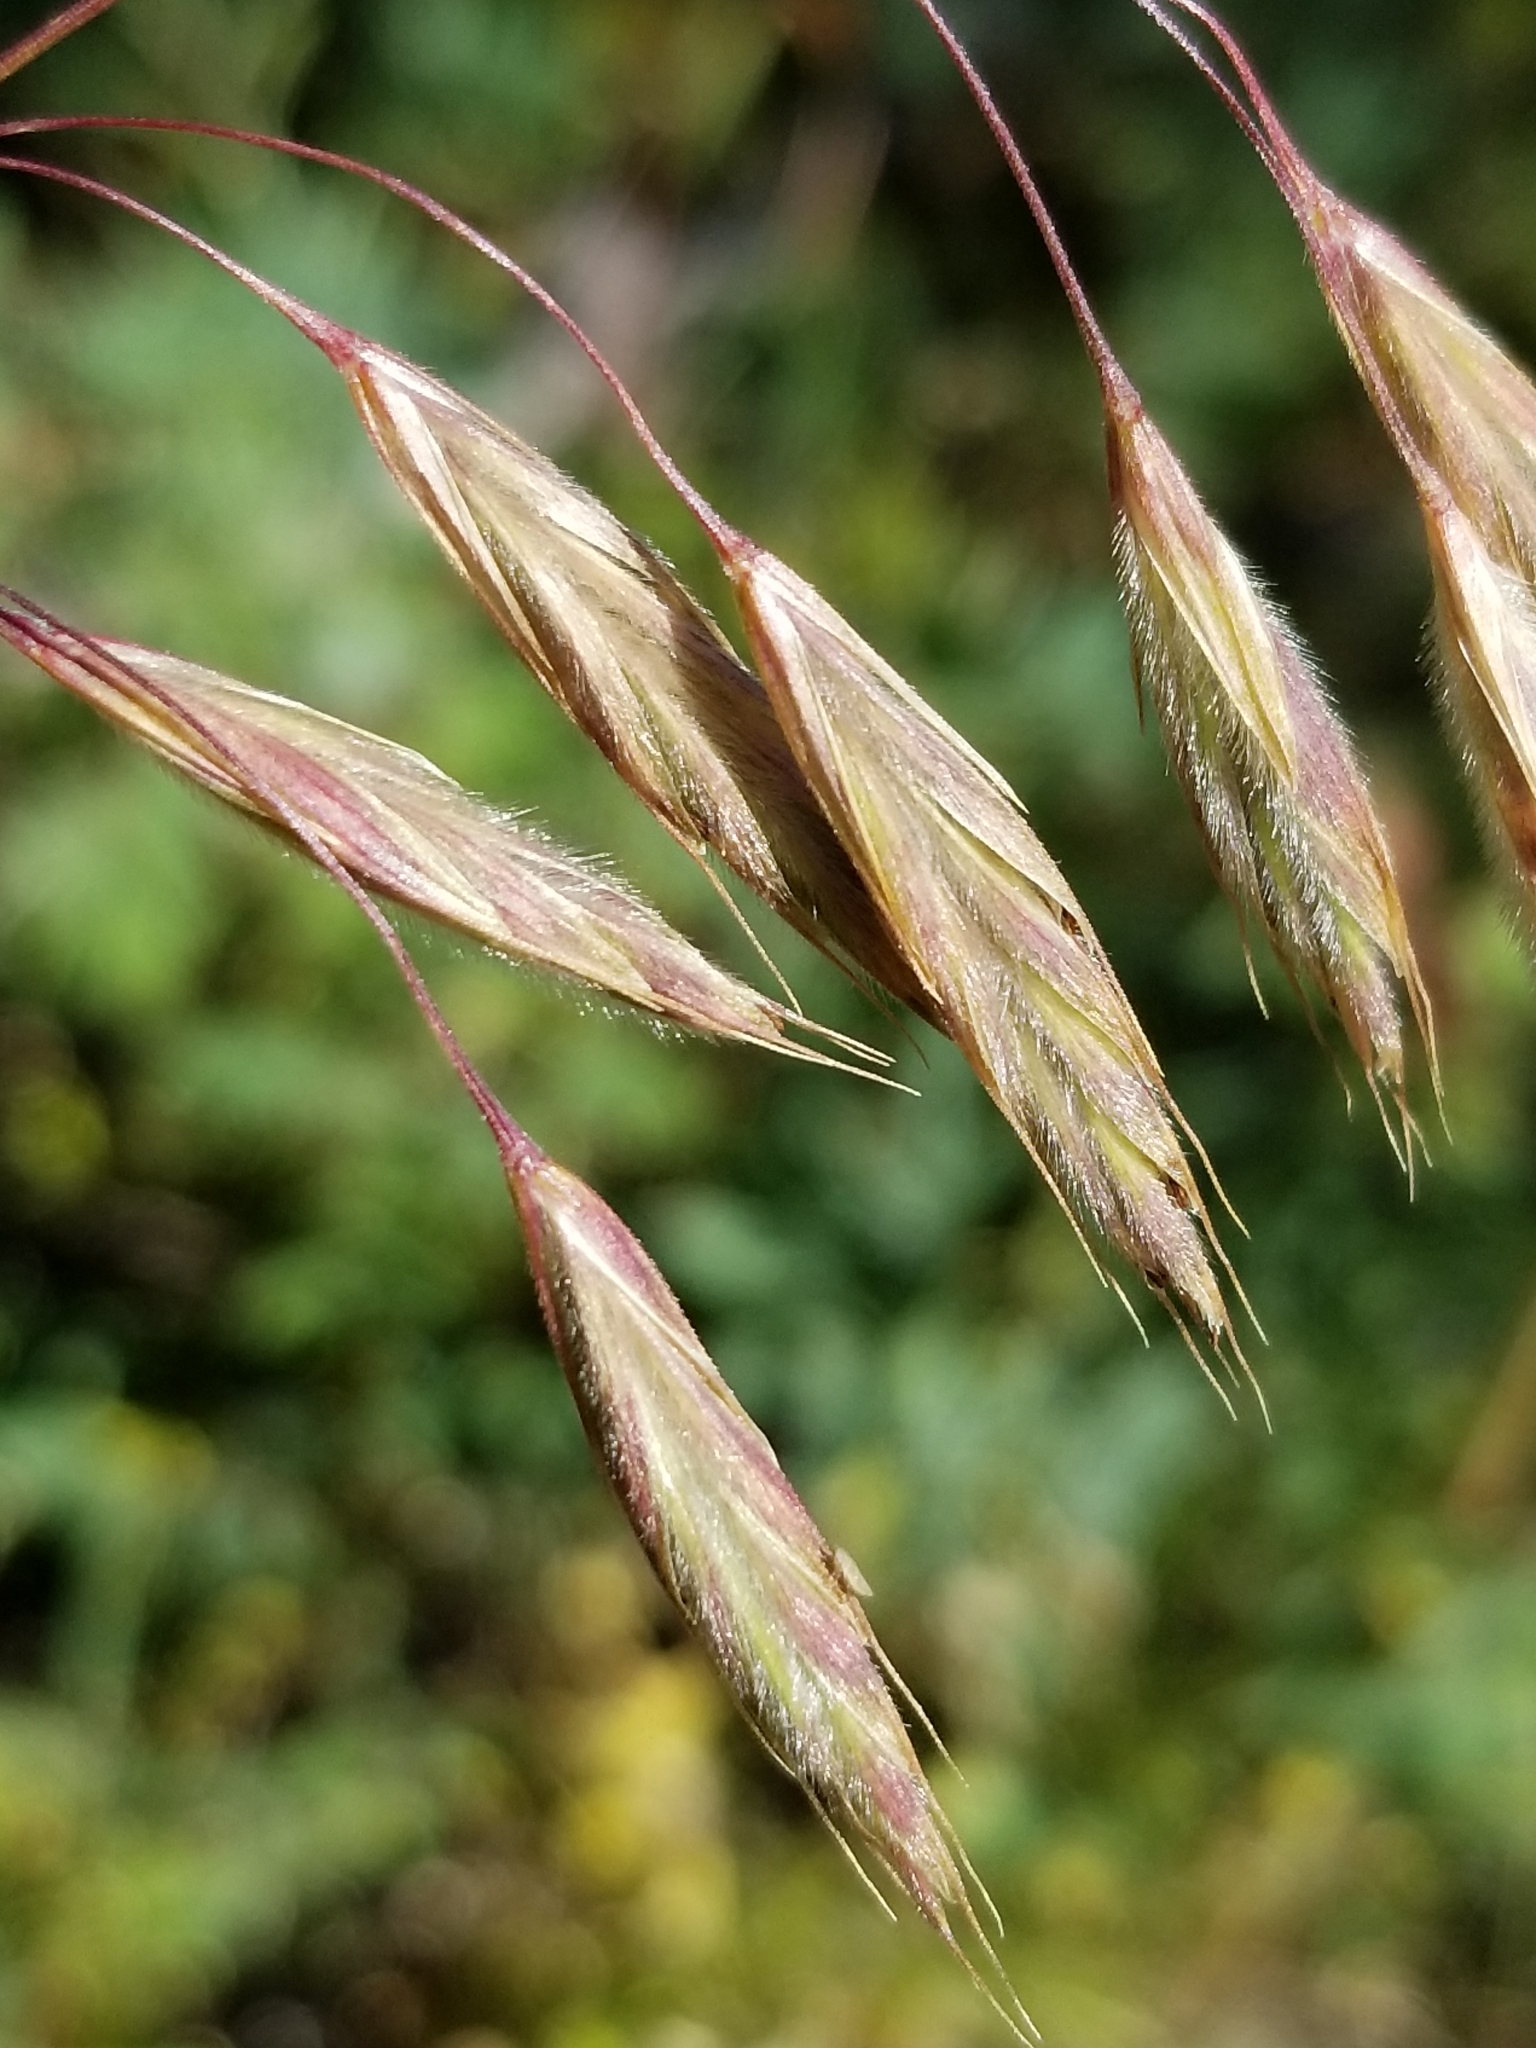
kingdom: Plantae
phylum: Tracheophyta
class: Liliopsida
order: Poales
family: Poaceae
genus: Bromus
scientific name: Bromus porteri
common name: Nodding brome
